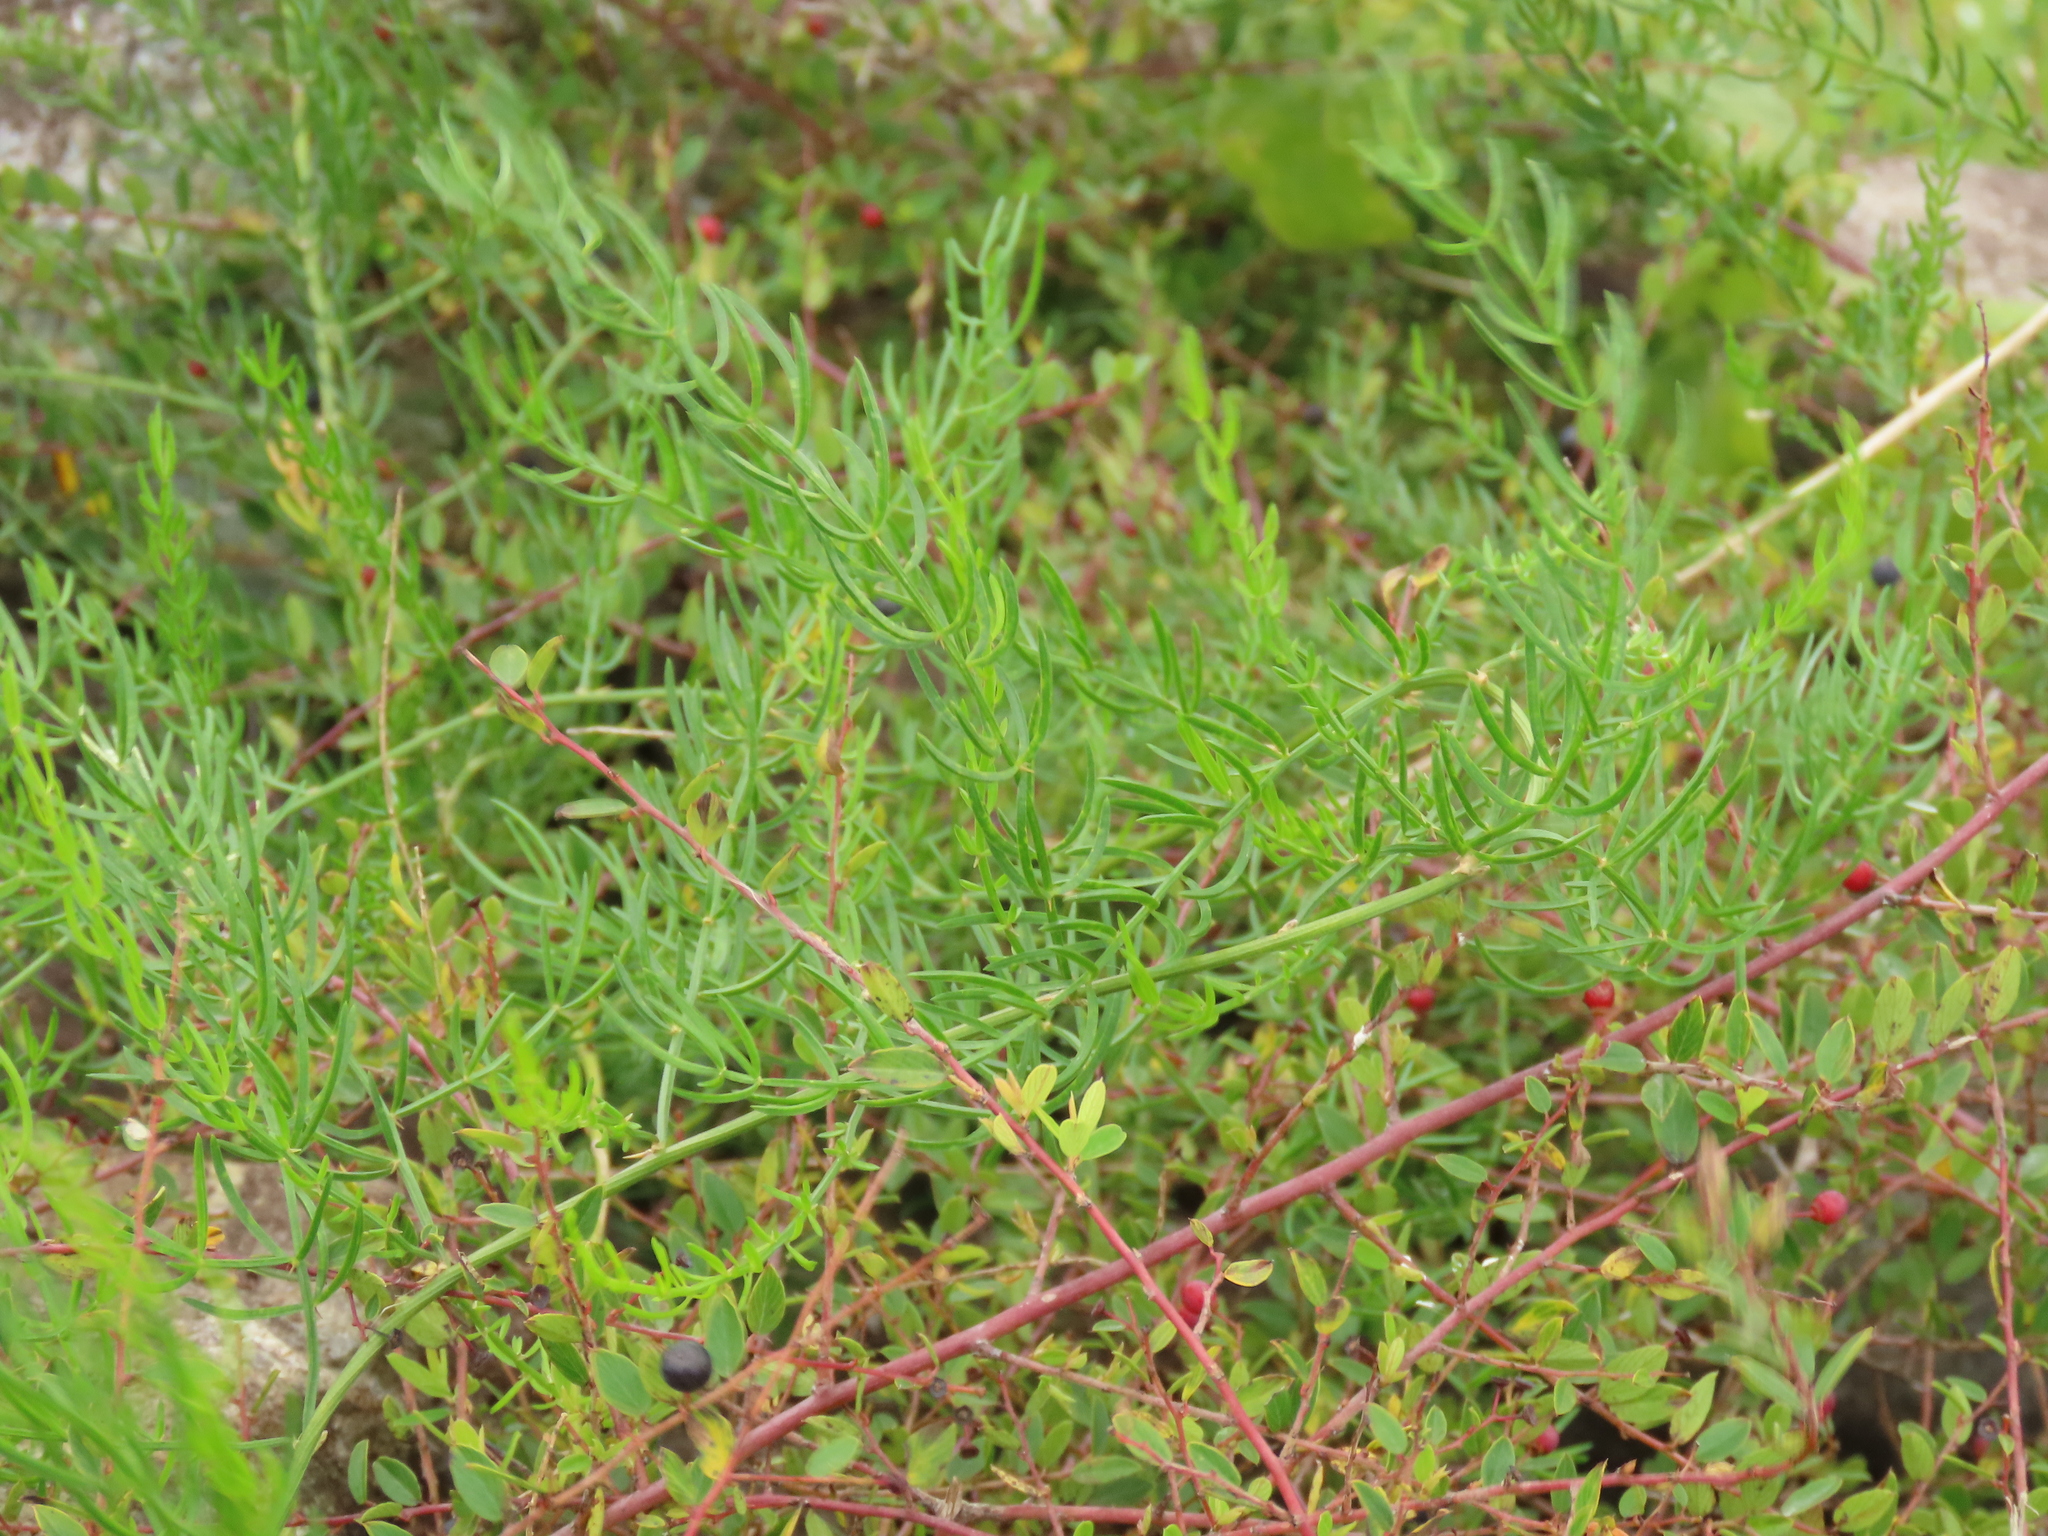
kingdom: Plantae
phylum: Tracheophyta
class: Liliopsida
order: Asparagales
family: Asparagaceae
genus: Asparagus
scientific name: Asparagus cochinchinensis
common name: Chinese asparagus
